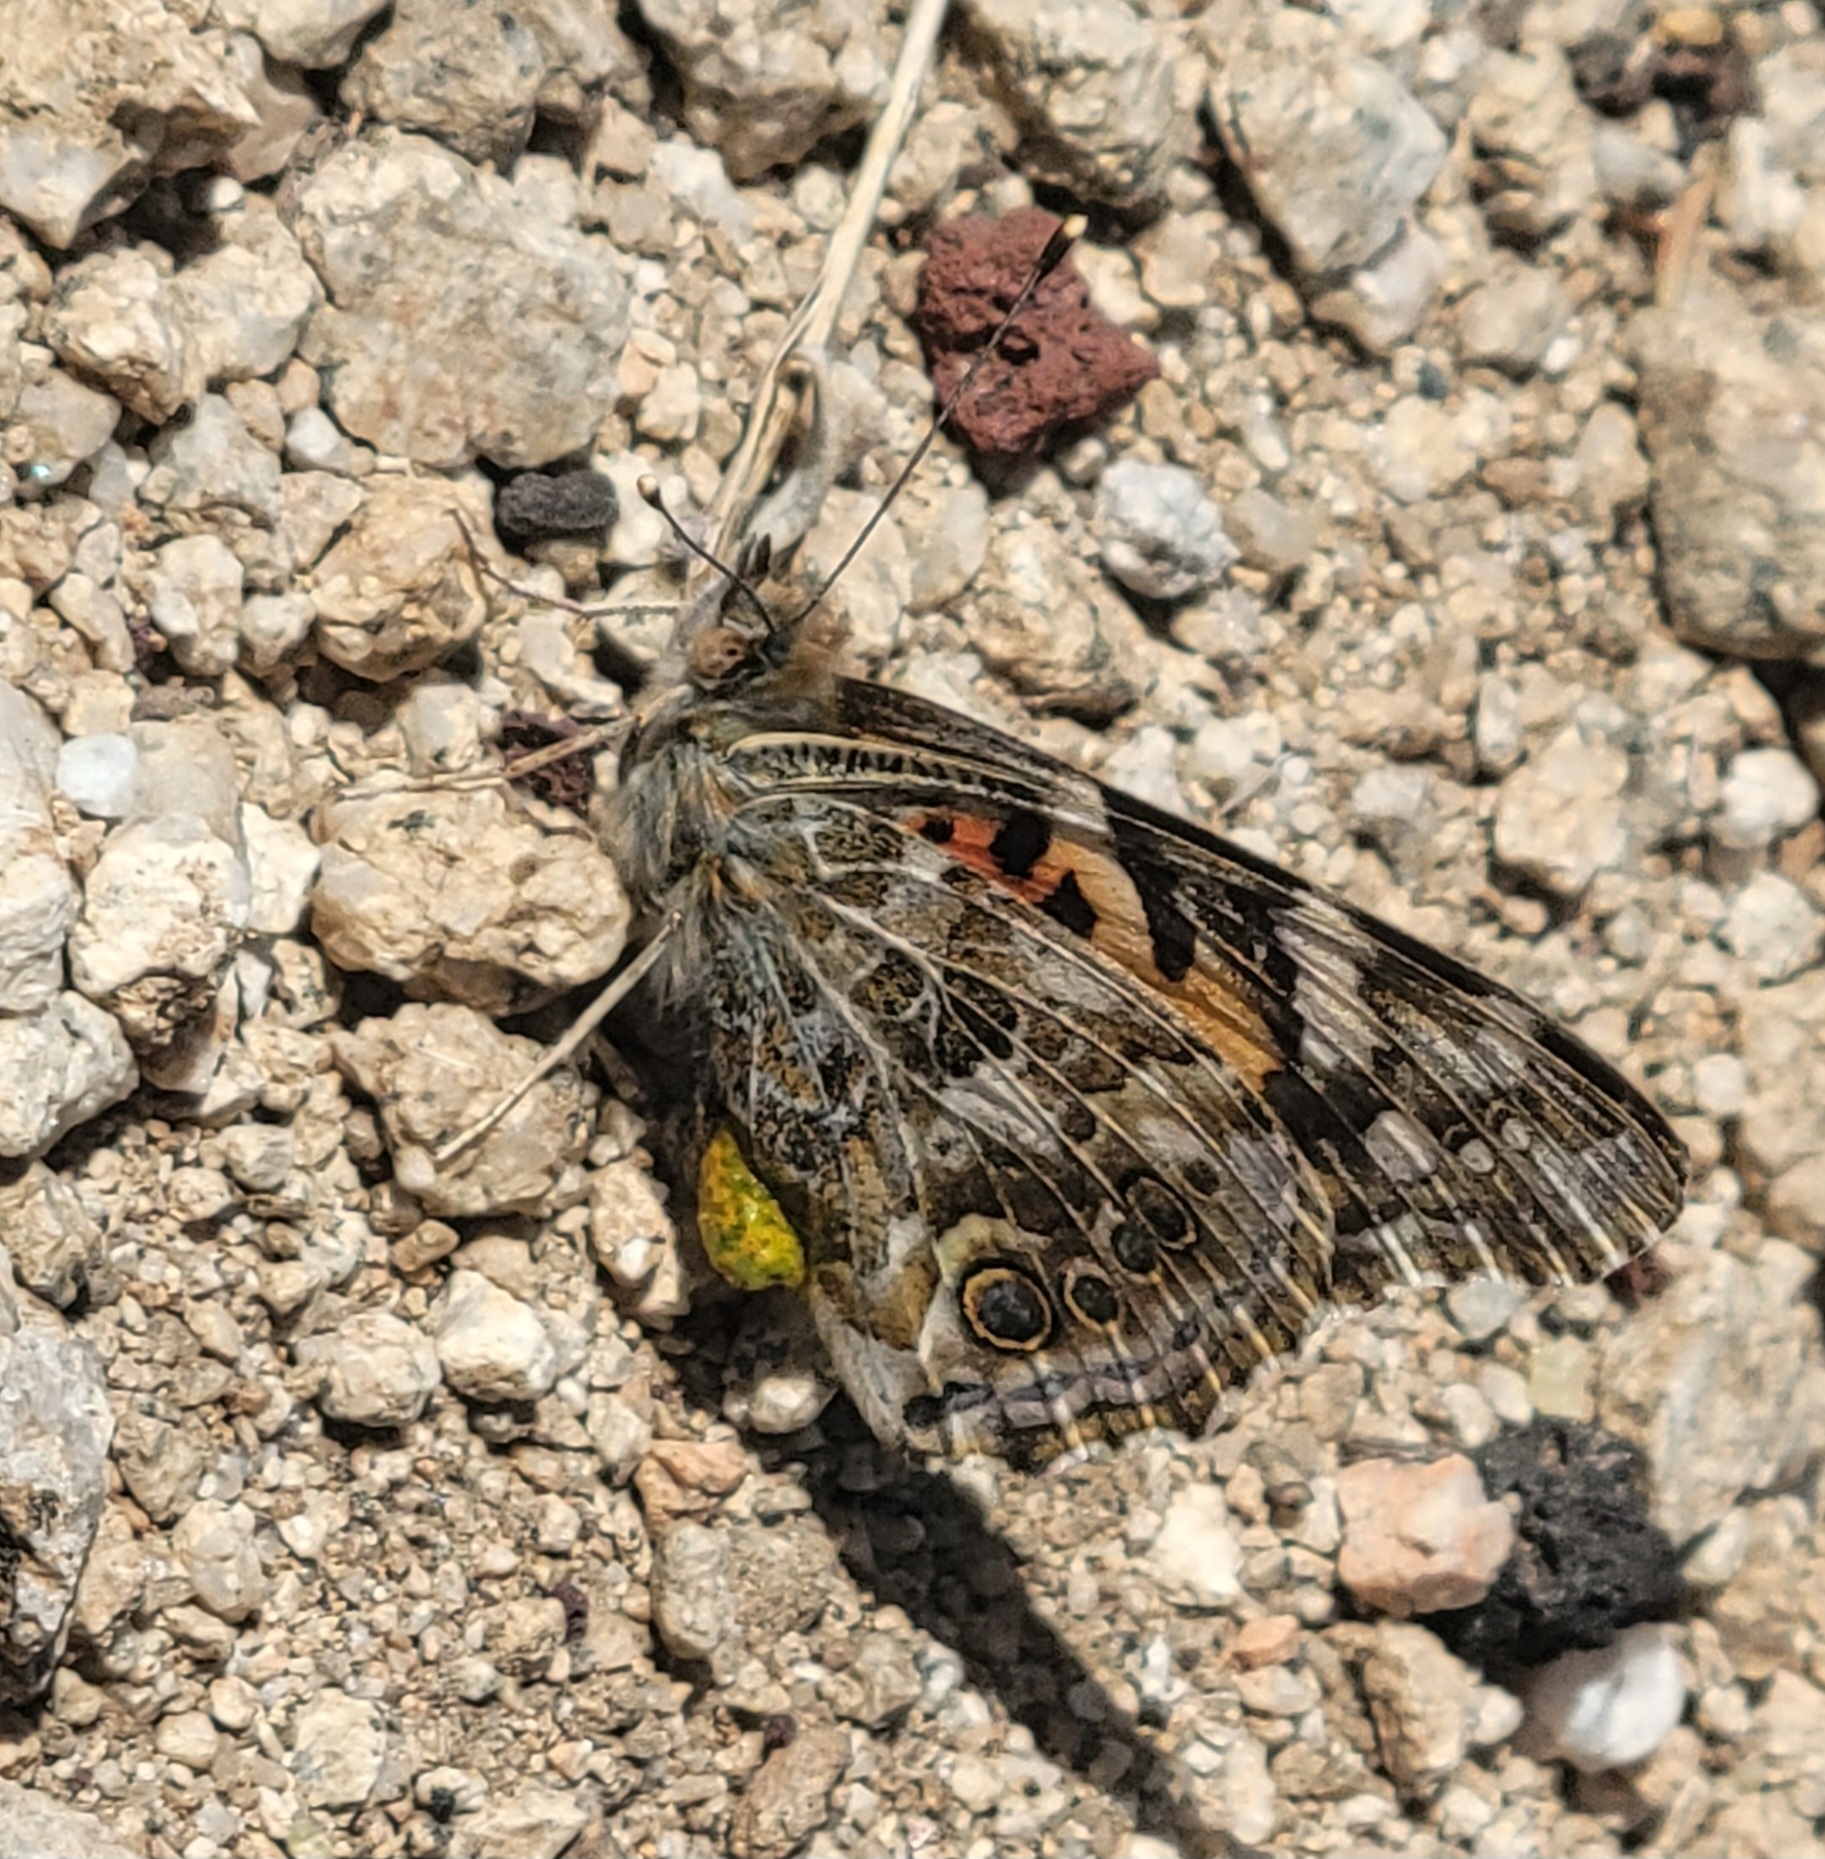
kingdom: Animalia
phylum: Arthropoda
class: Insecta
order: Lepidoptera
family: Nymphalidae
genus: Vanessa
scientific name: Vanessa cardui
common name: Painted lady
